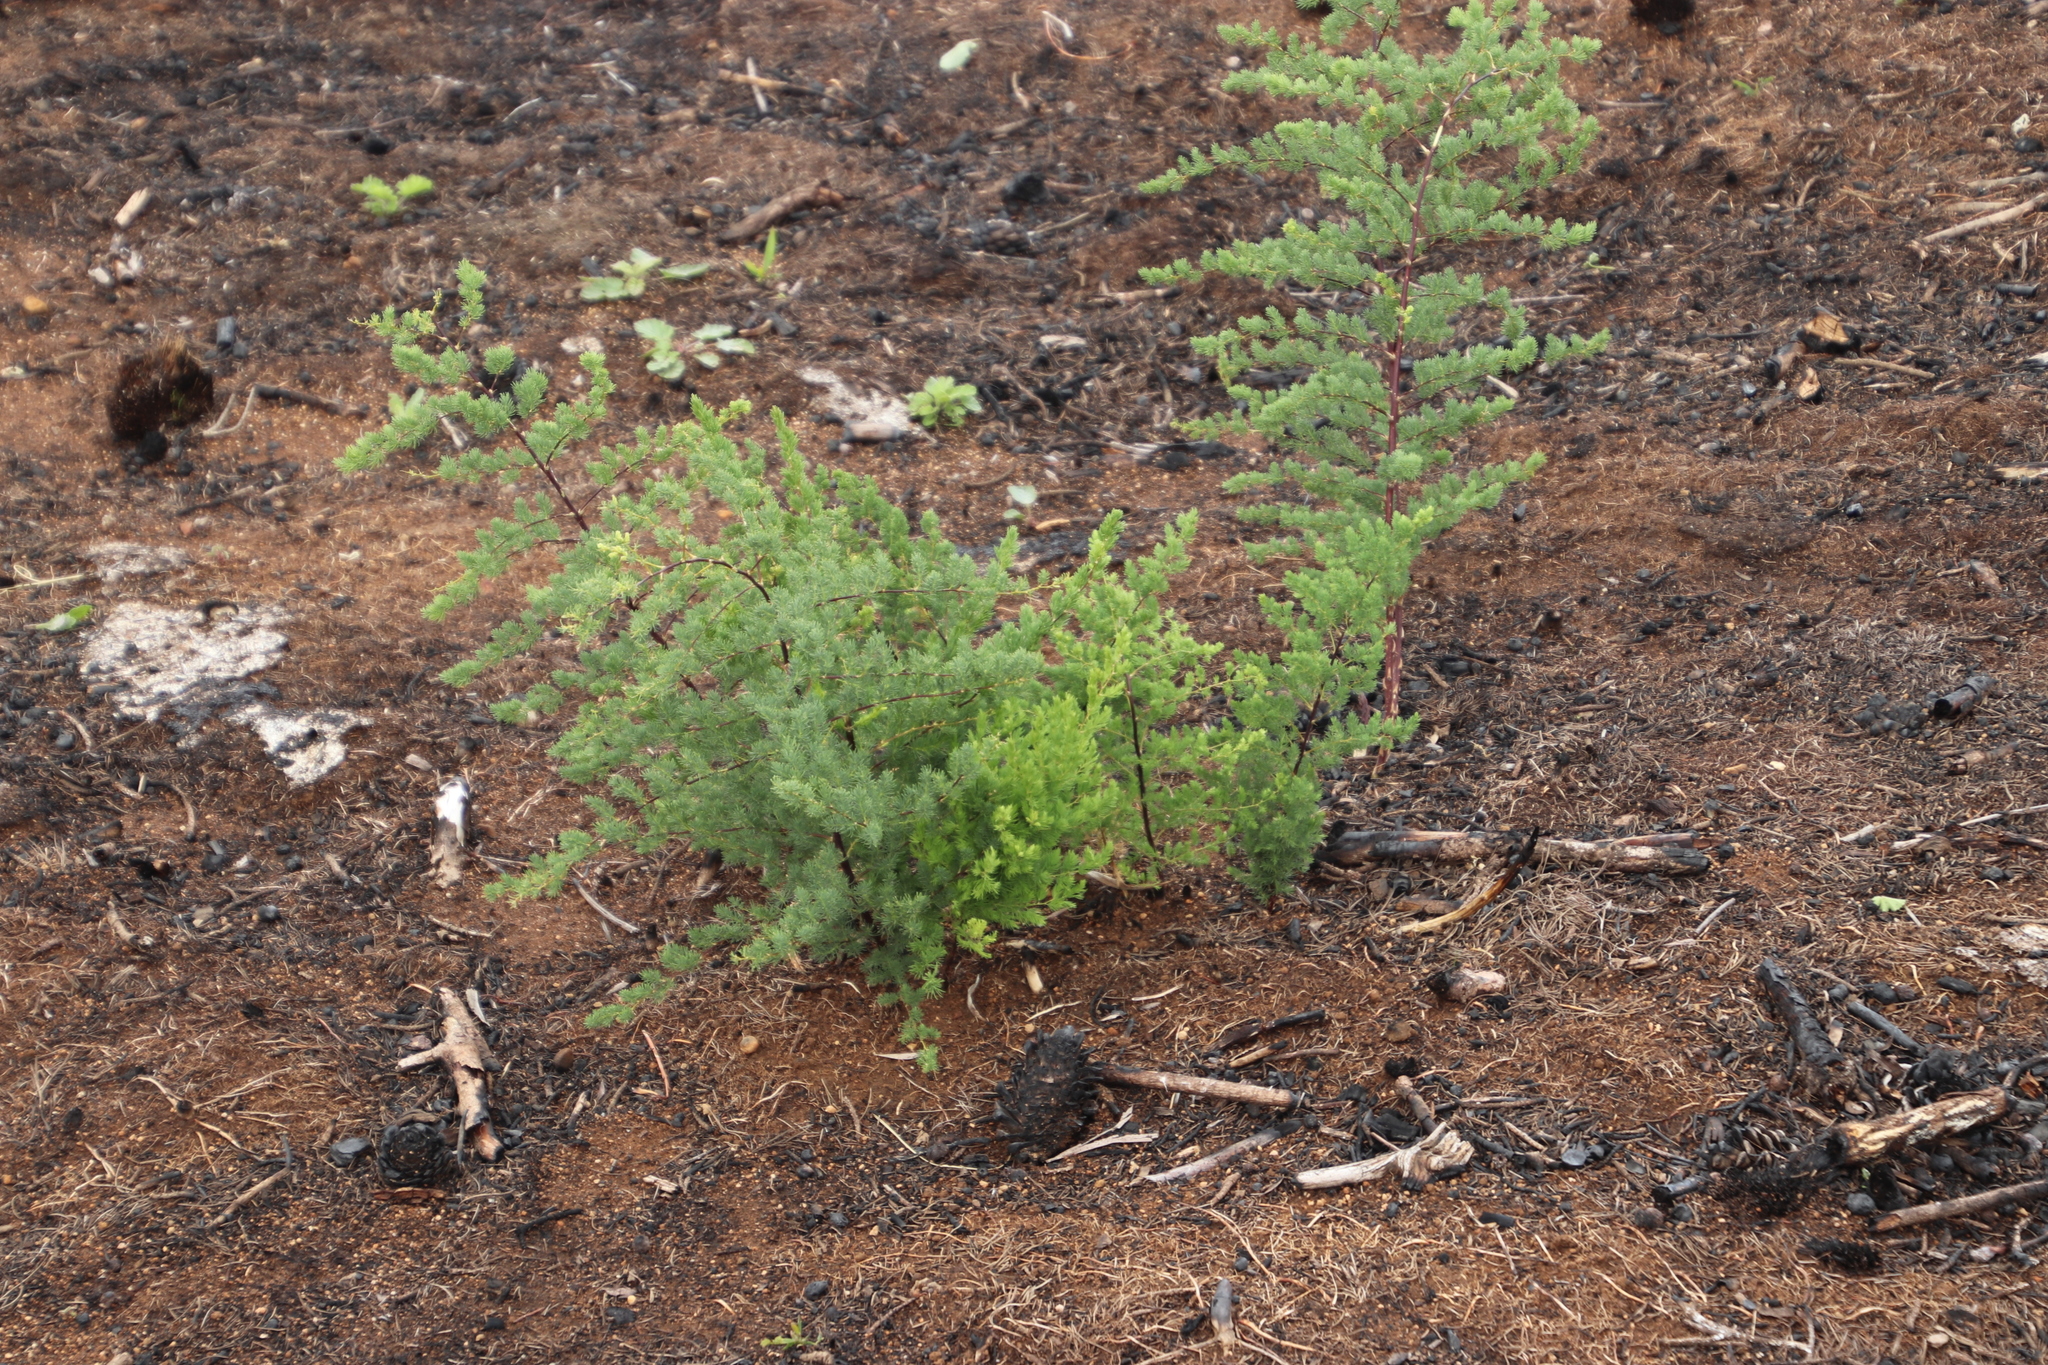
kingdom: Plantae
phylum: Tracheophyta
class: Liliopsida
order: Asparagales
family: Asparagaceae
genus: Asparagus
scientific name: Asparagus rubicundus
